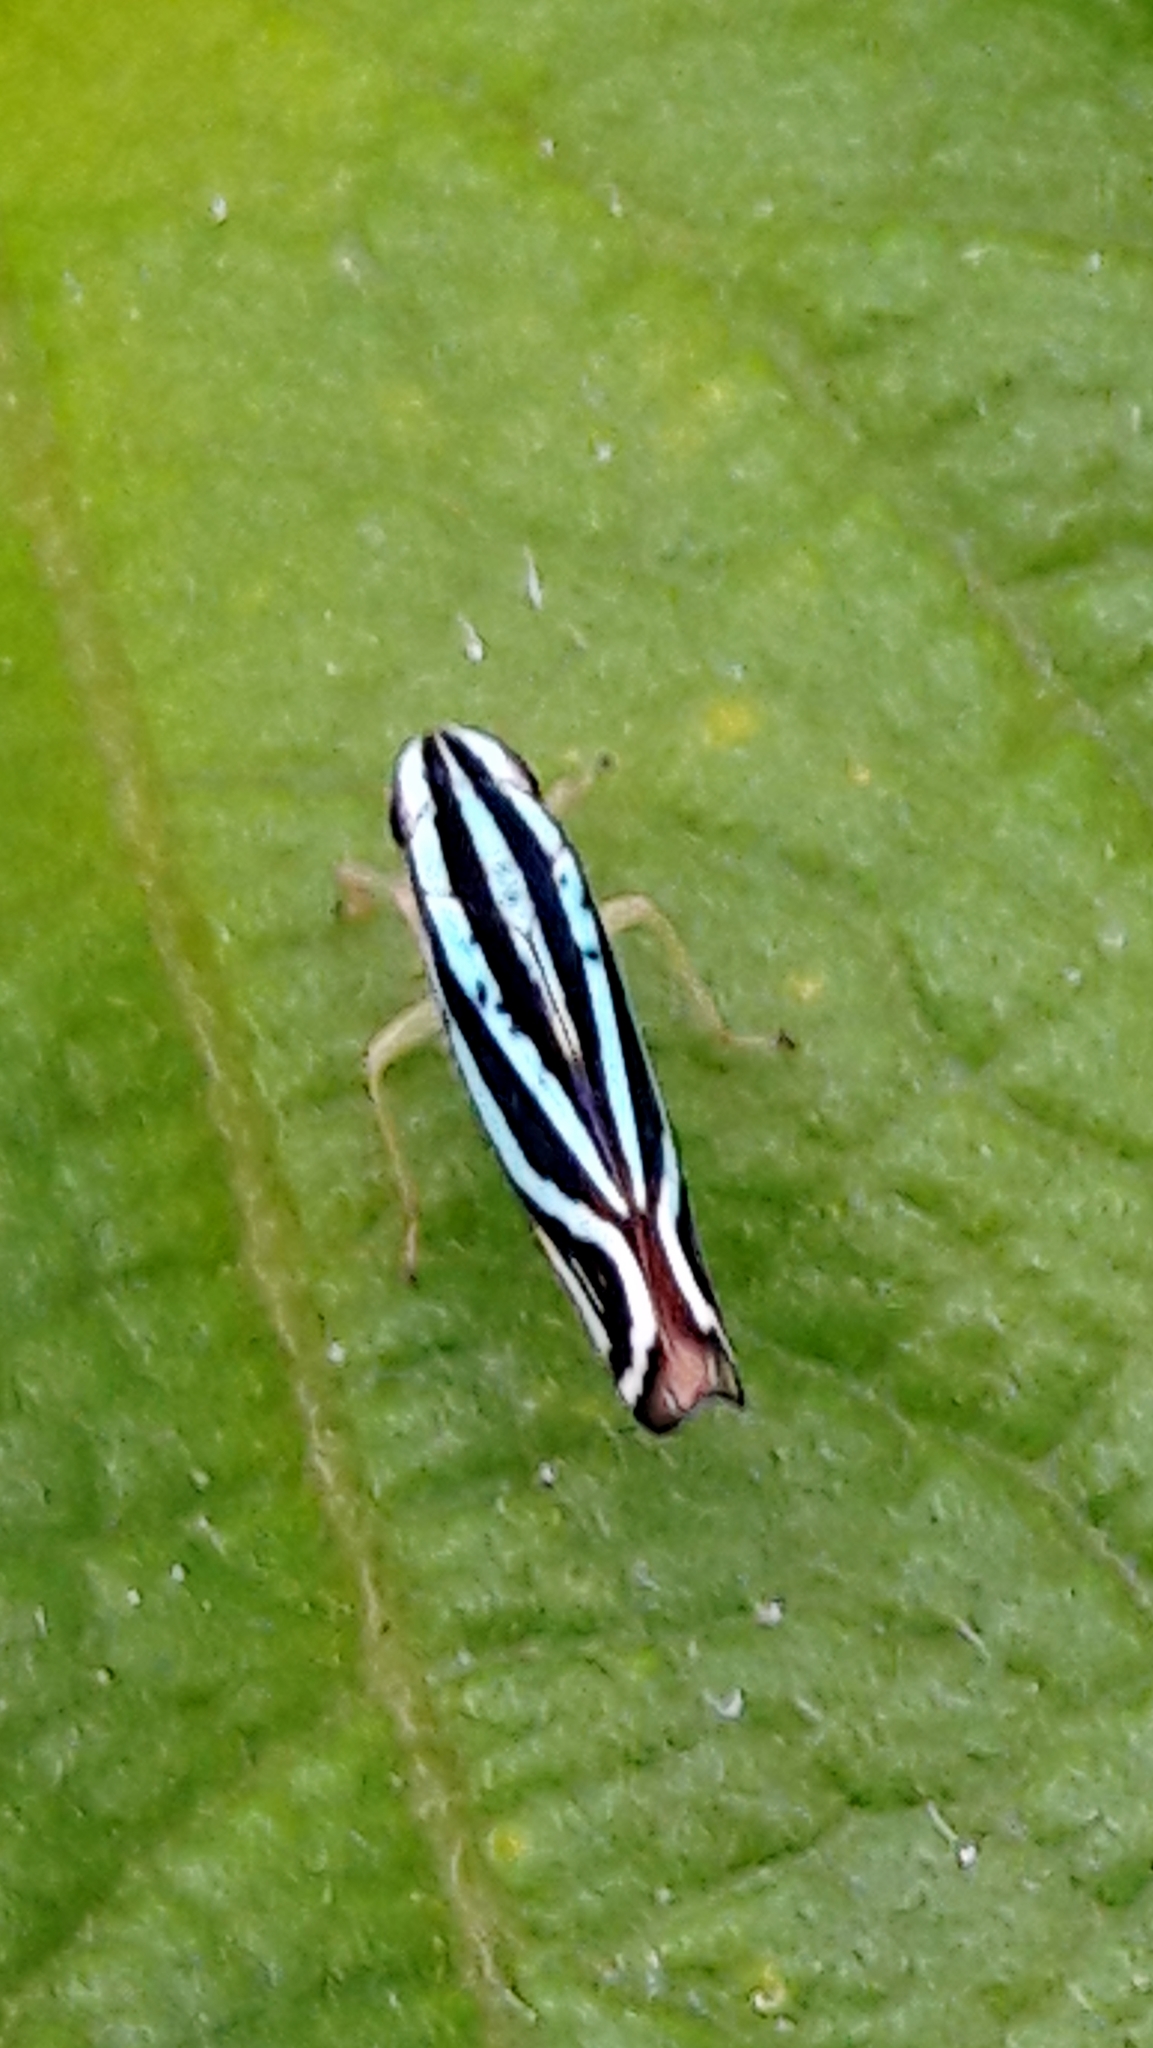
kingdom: Animalia
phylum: Arthropoda
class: Insecta
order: Hemiptera
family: Cicadellidae
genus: Sibovia
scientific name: Sibovia sagata
